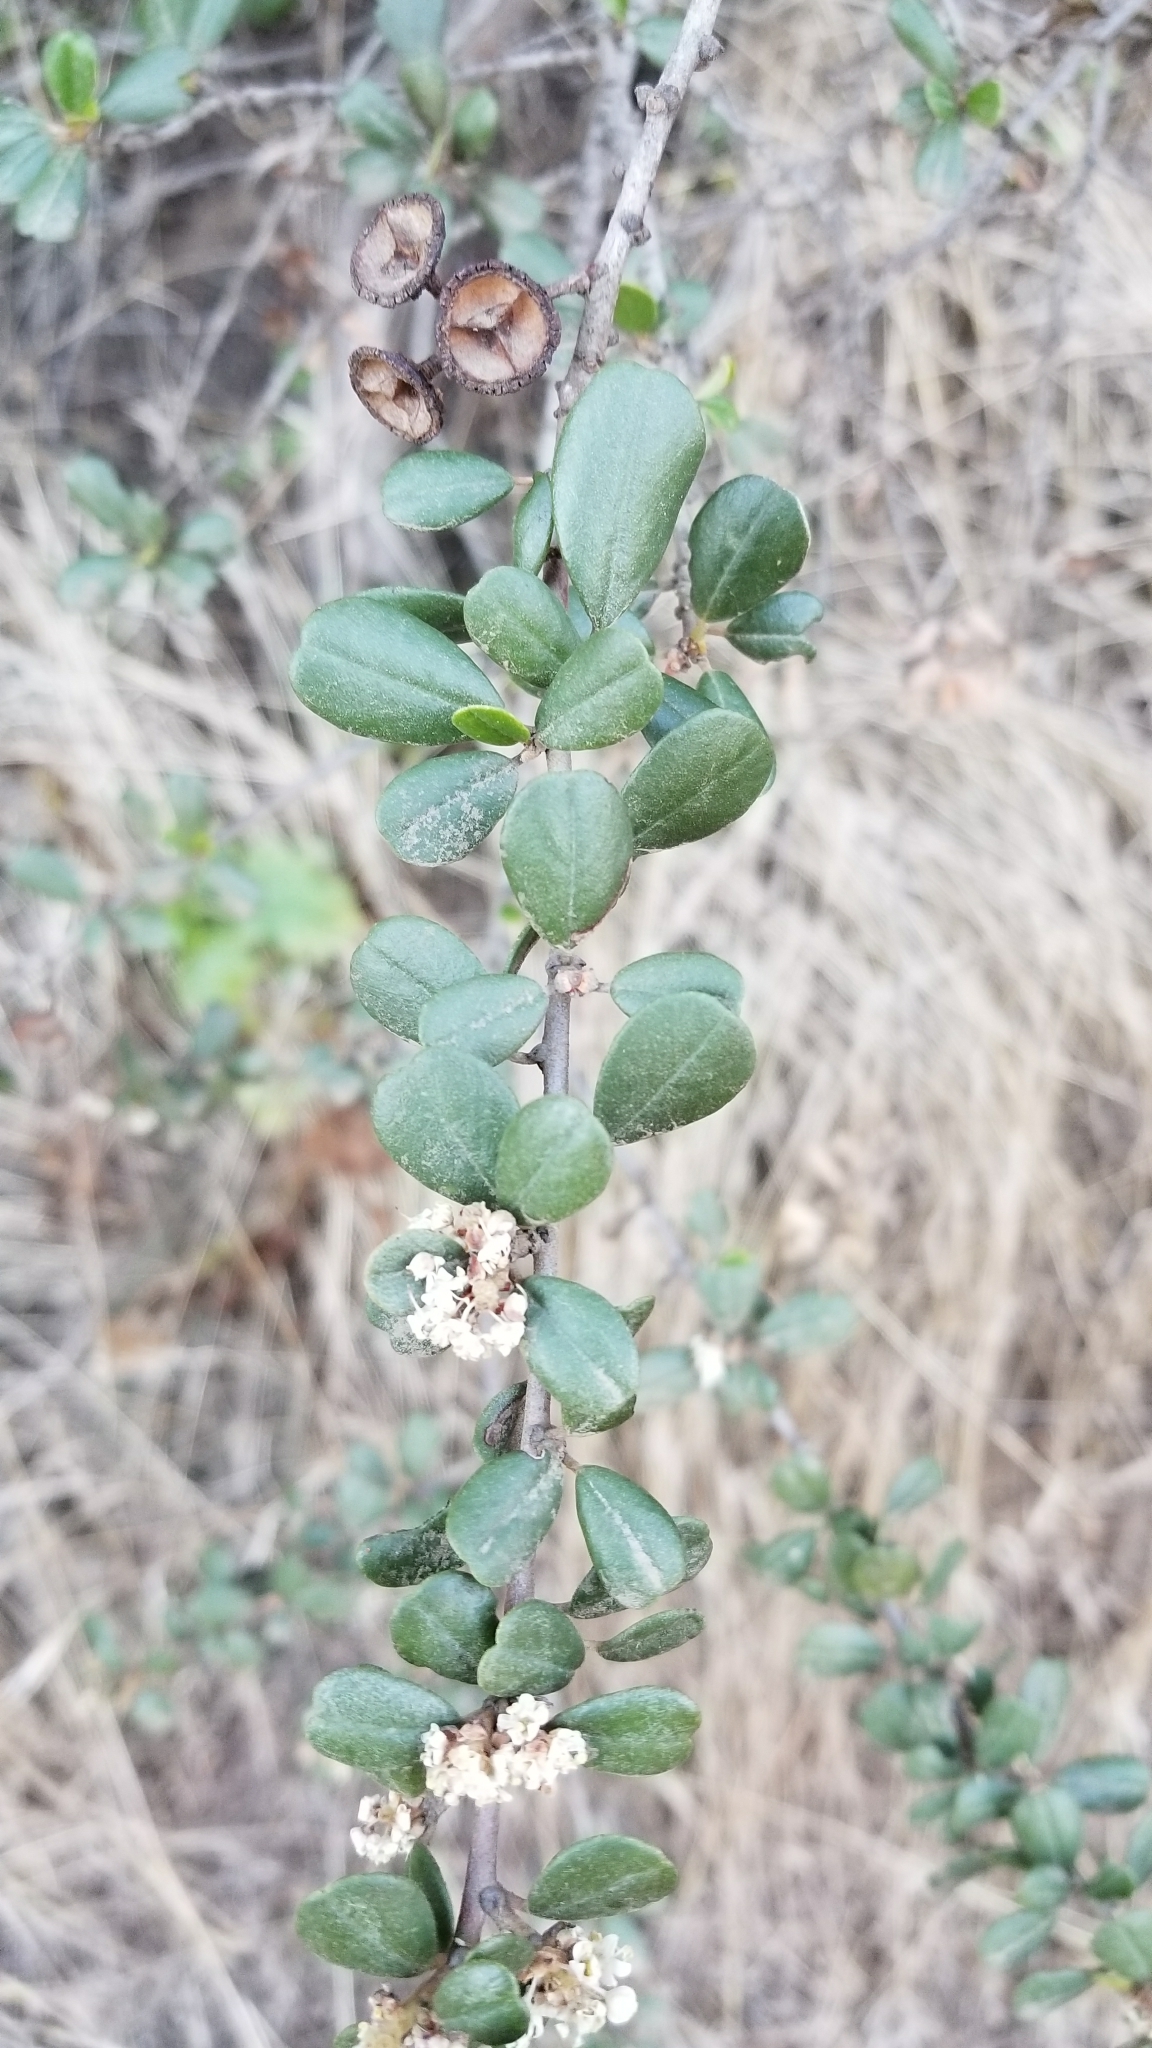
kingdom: Plantae
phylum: Tracheophyta
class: Magnoliopsida
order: Rosales
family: Rhamnaceae
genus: Ceanothus
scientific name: Ceanothus megacarpus
